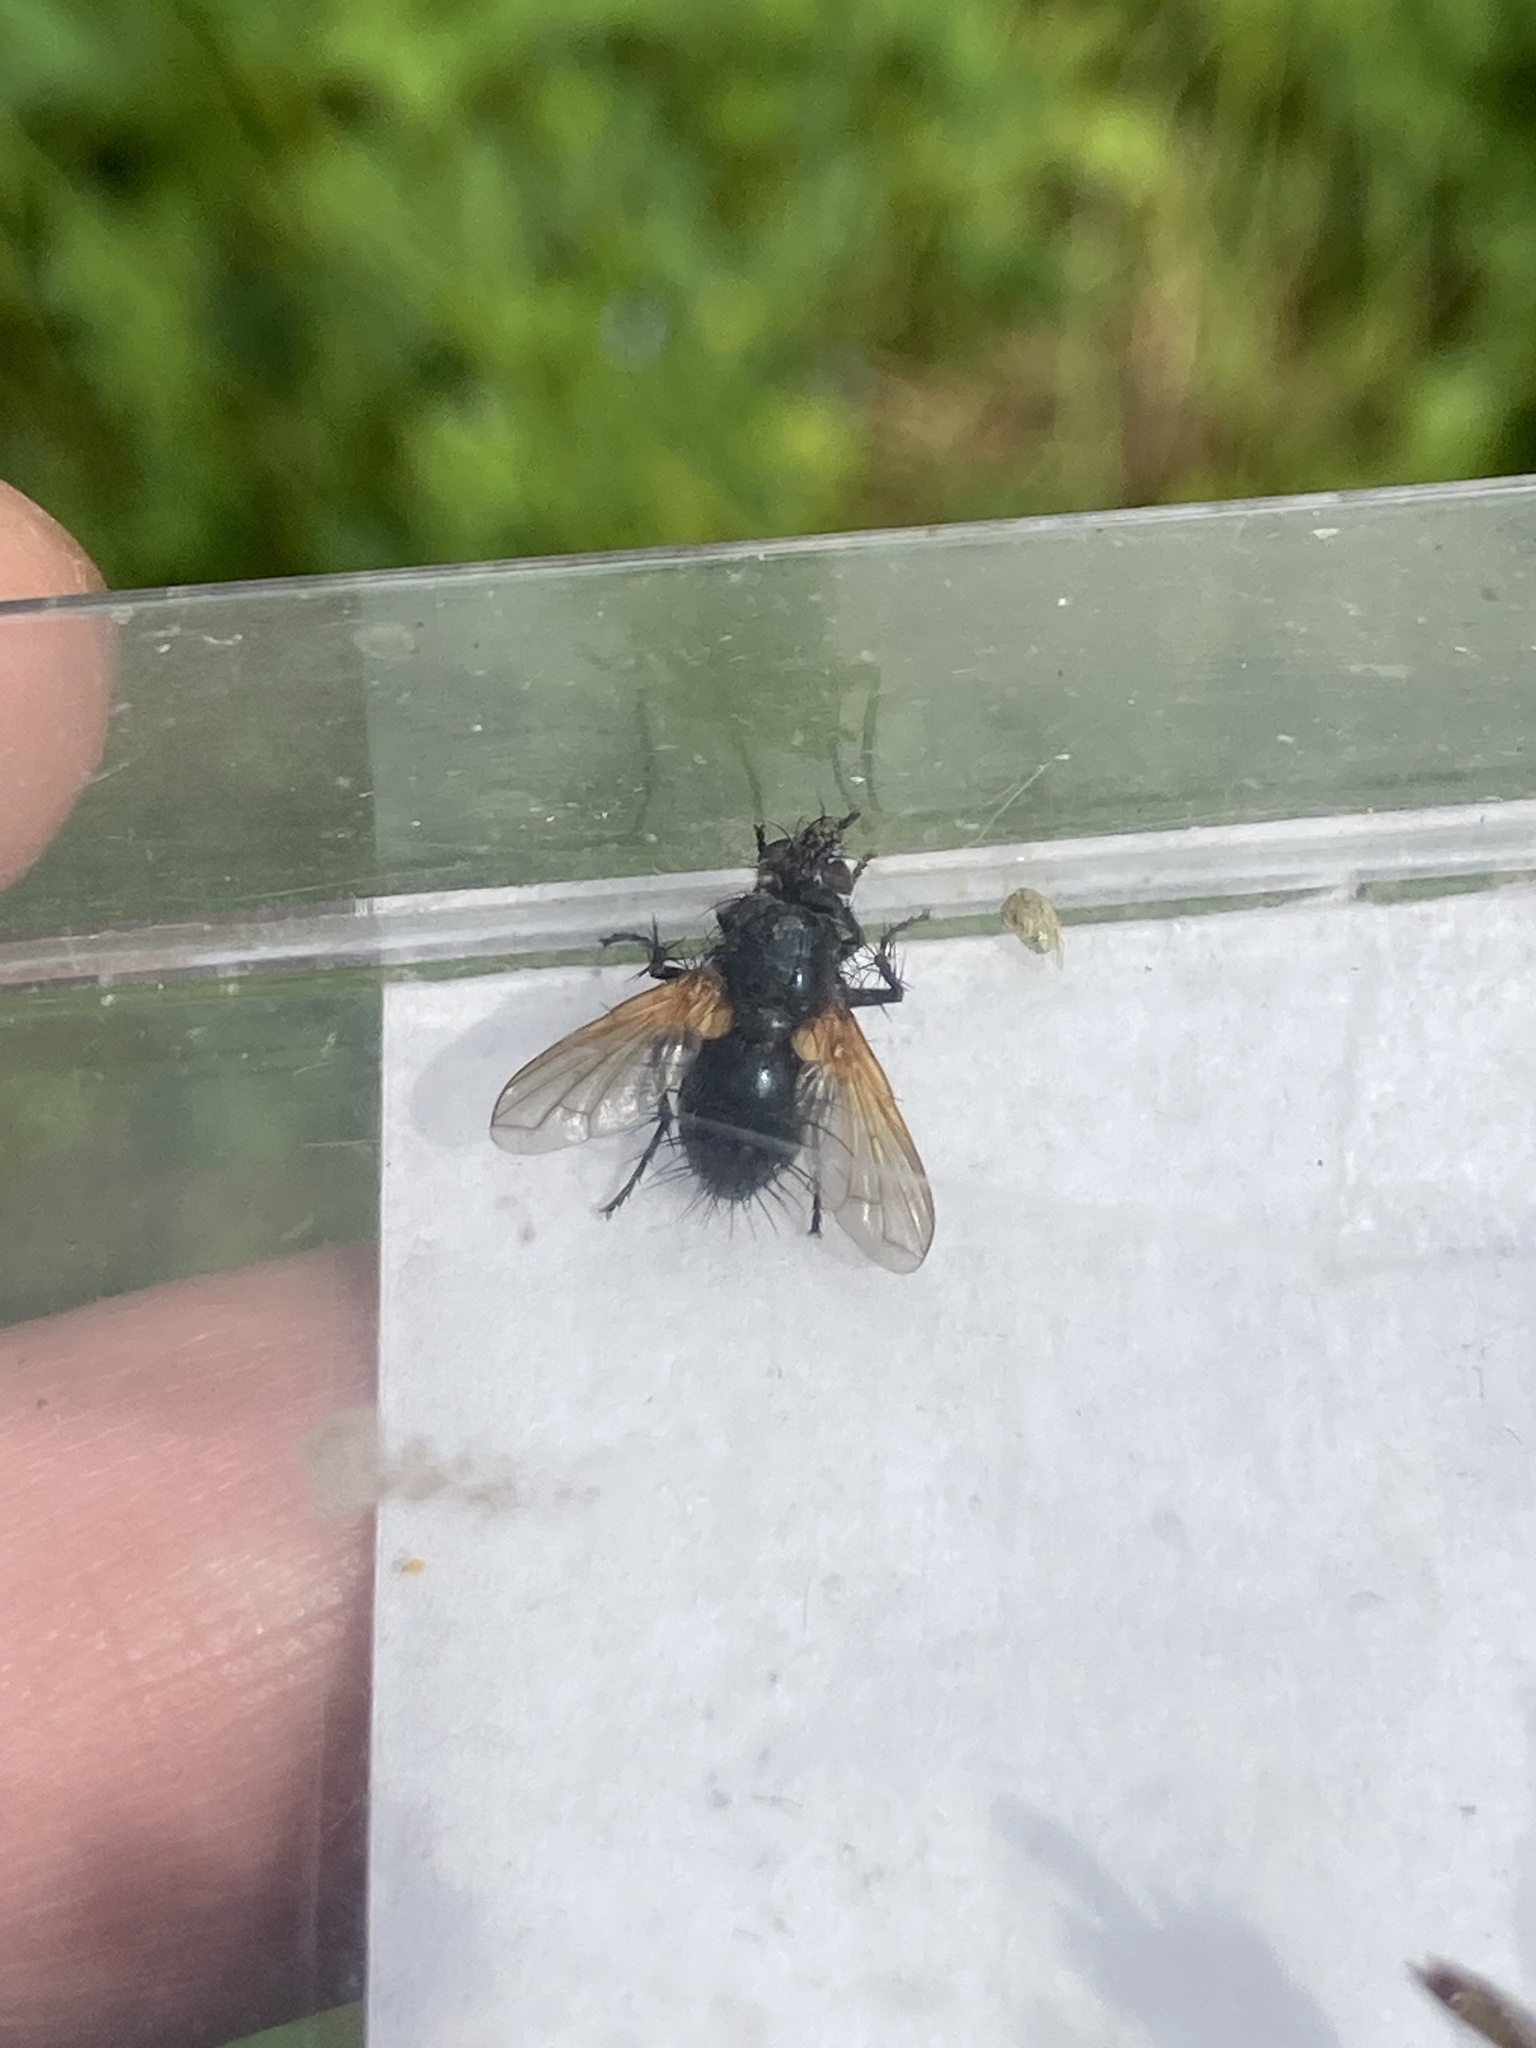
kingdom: Animalia
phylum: Arthropoda
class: Insecta
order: Diptera
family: Tachinidae
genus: Zophomyia
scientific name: Zophomyia temula
